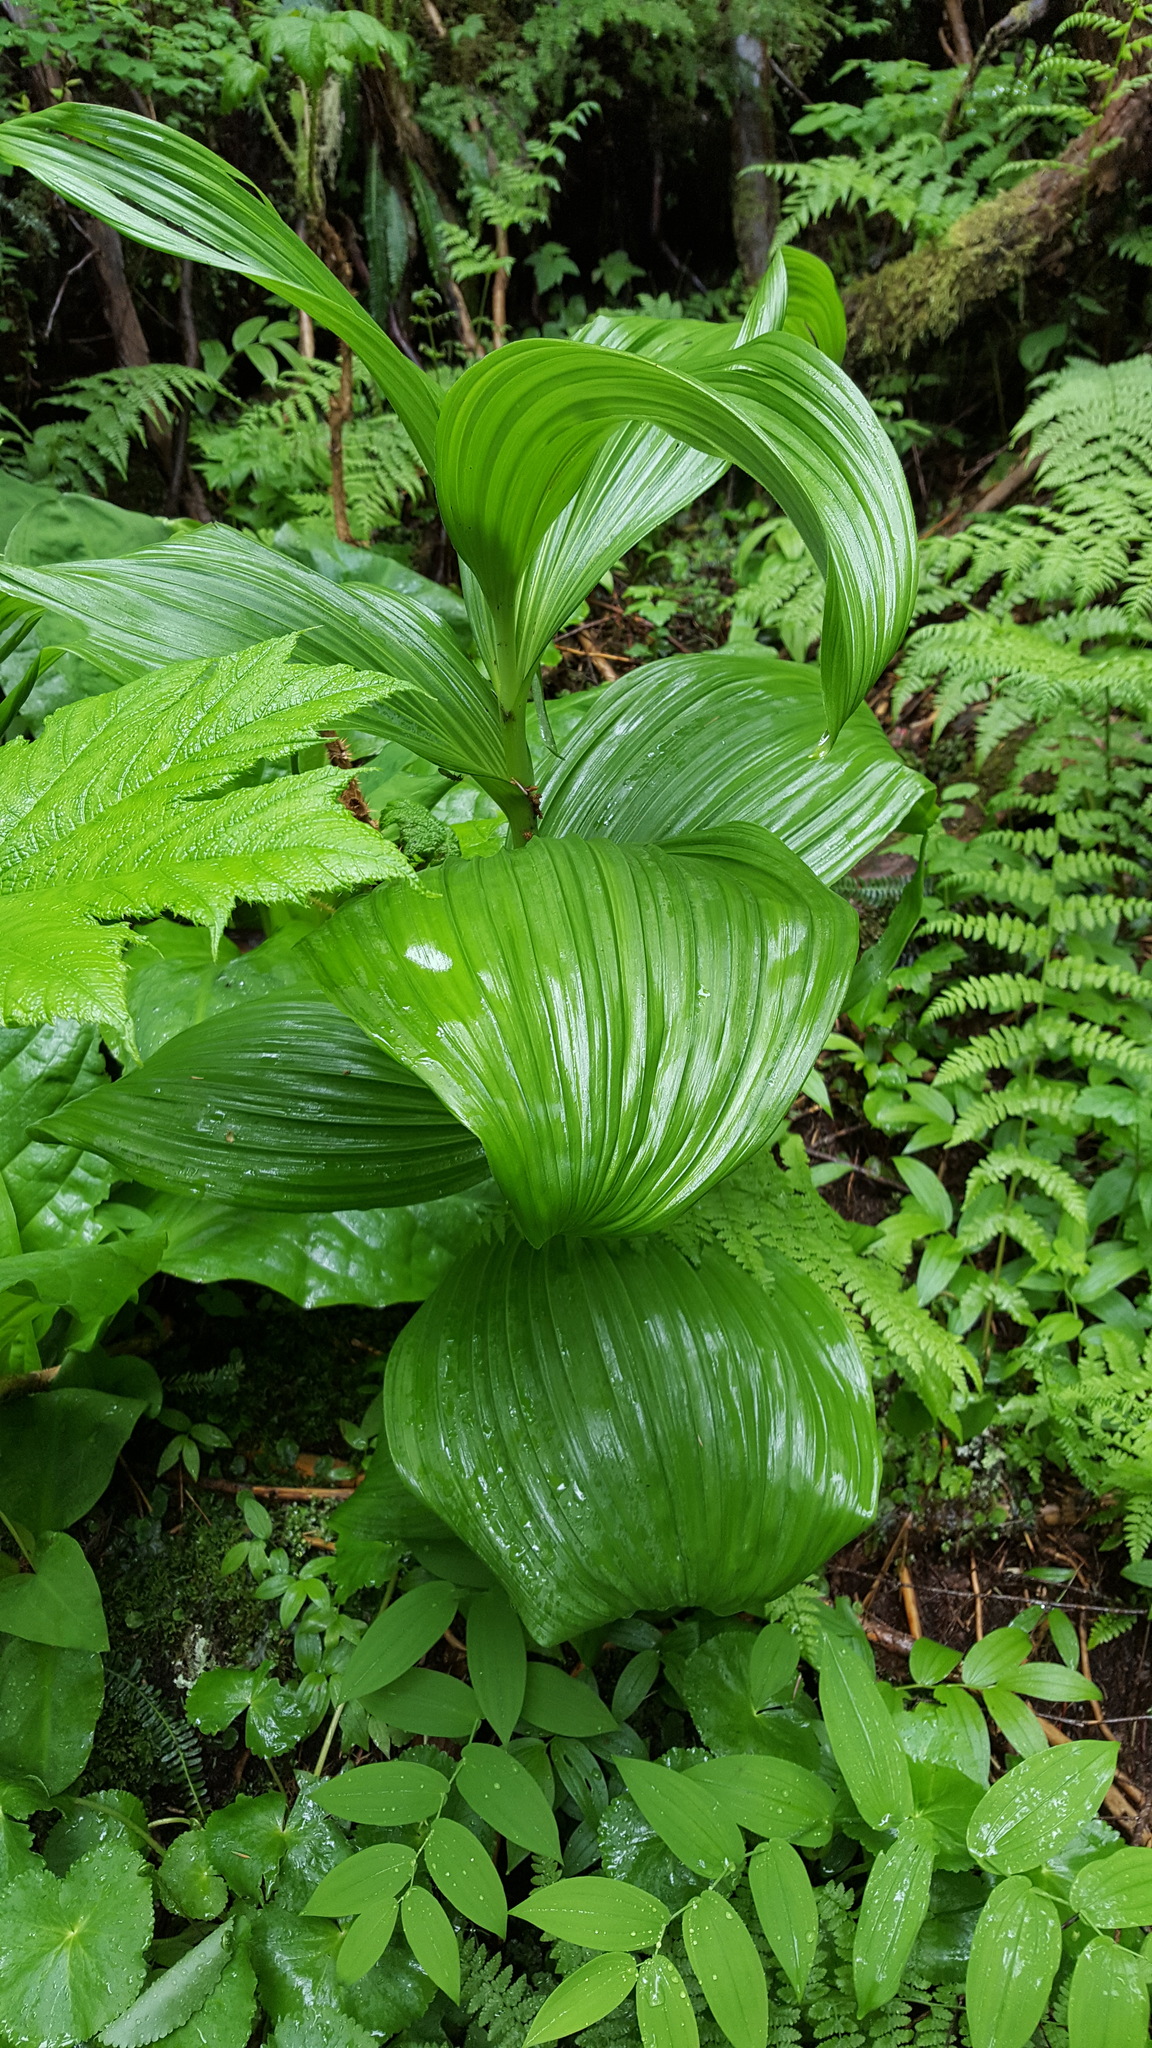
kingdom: Plantae
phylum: Tracheophyta
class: Liliopsida
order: Liliales
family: Melanthiaceae
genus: Veratrum
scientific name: Veratrum viride
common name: American false hellebore
